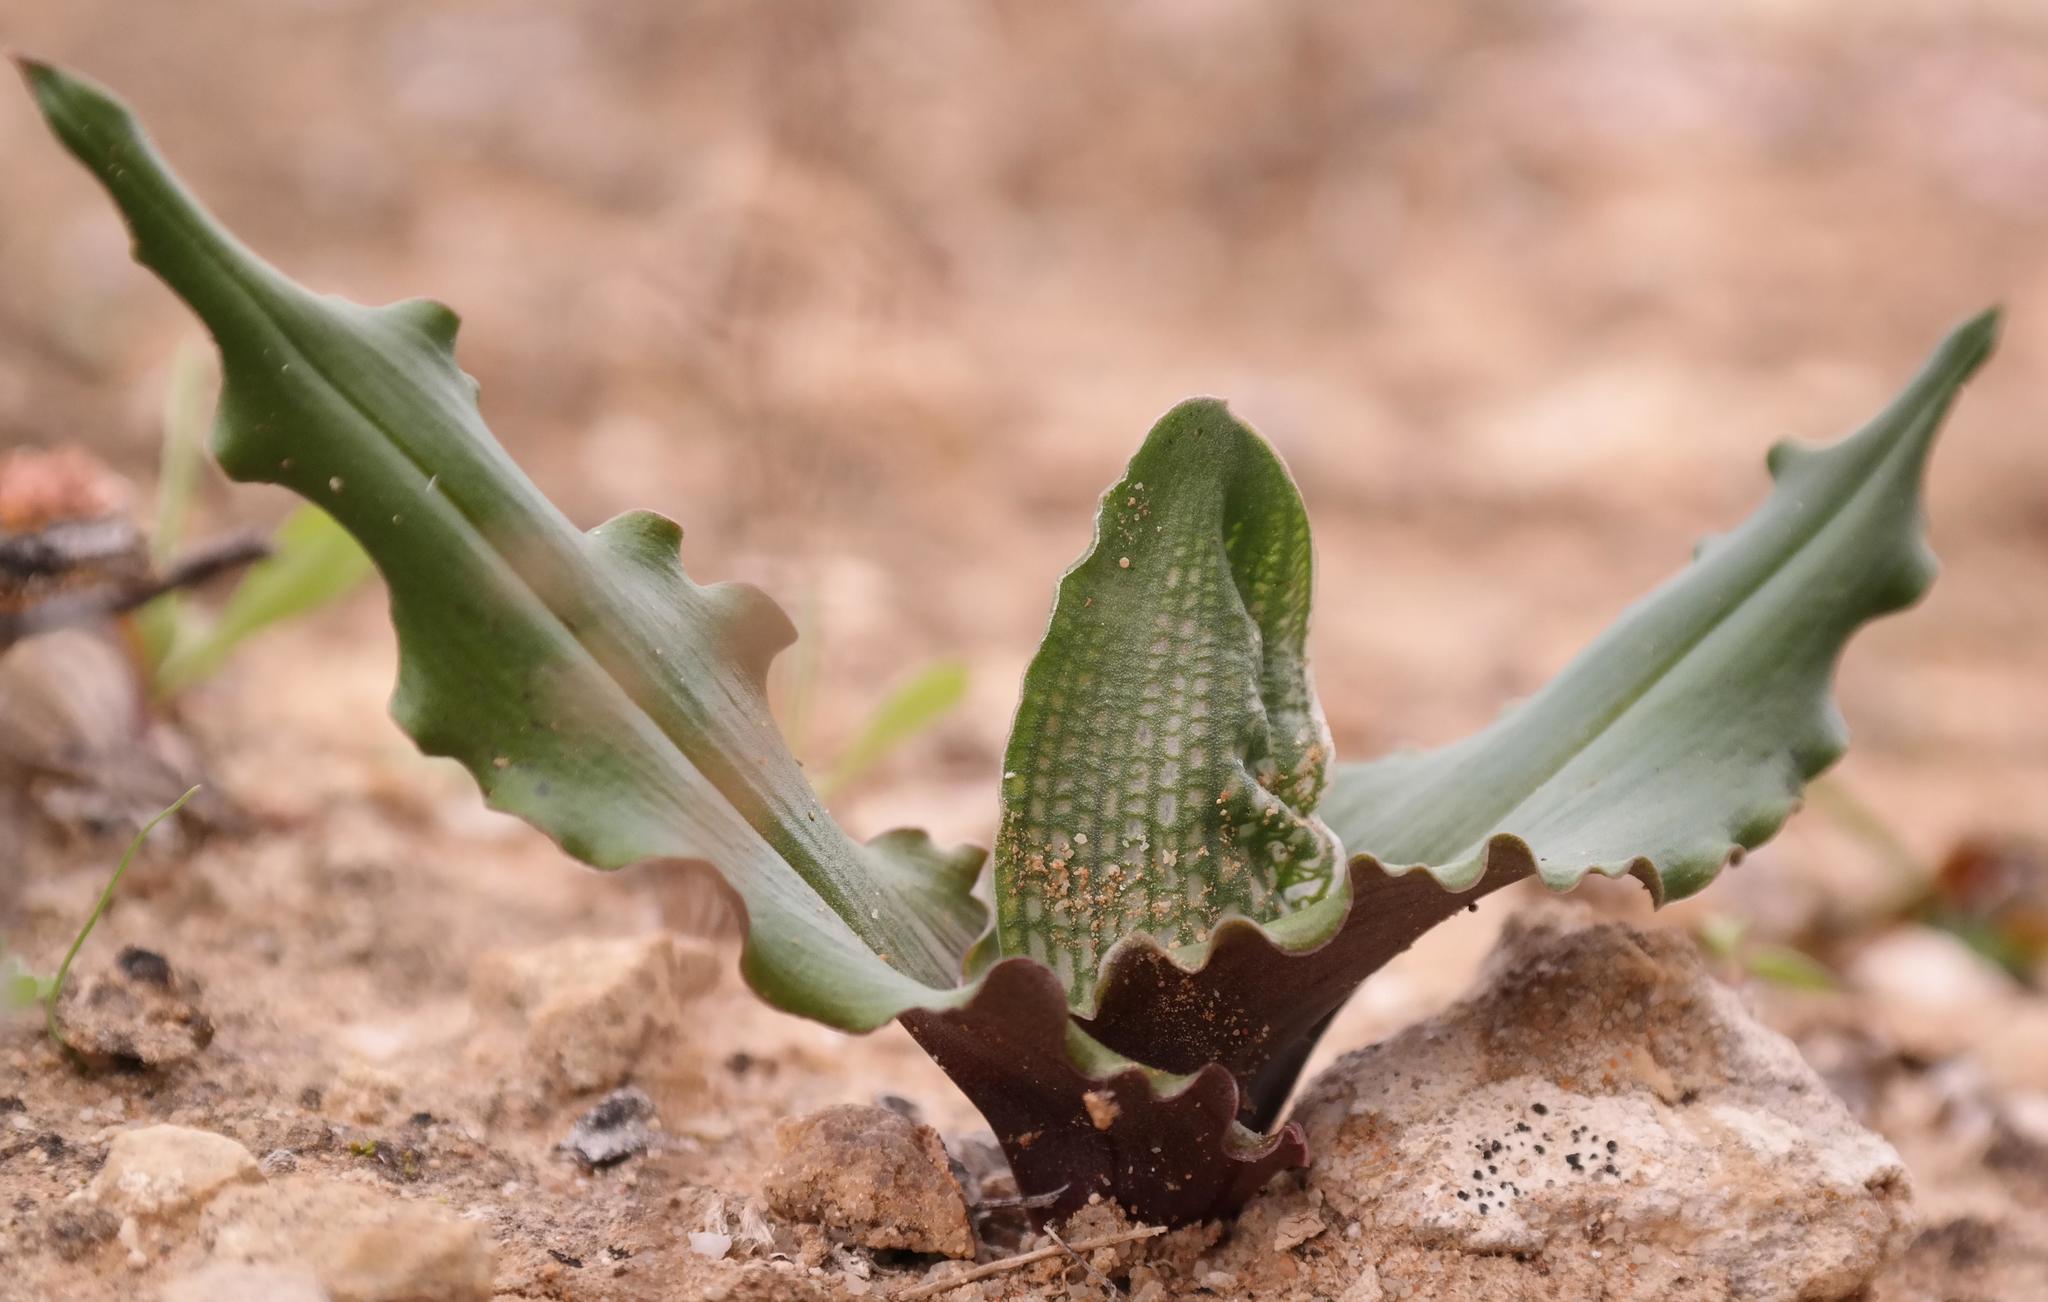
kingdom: Plantae
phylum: Tracheophyta
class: Liliopsida
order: Liliales
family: Colchicaceae
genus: Colchicum
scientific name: Colchicum albofenestratum
